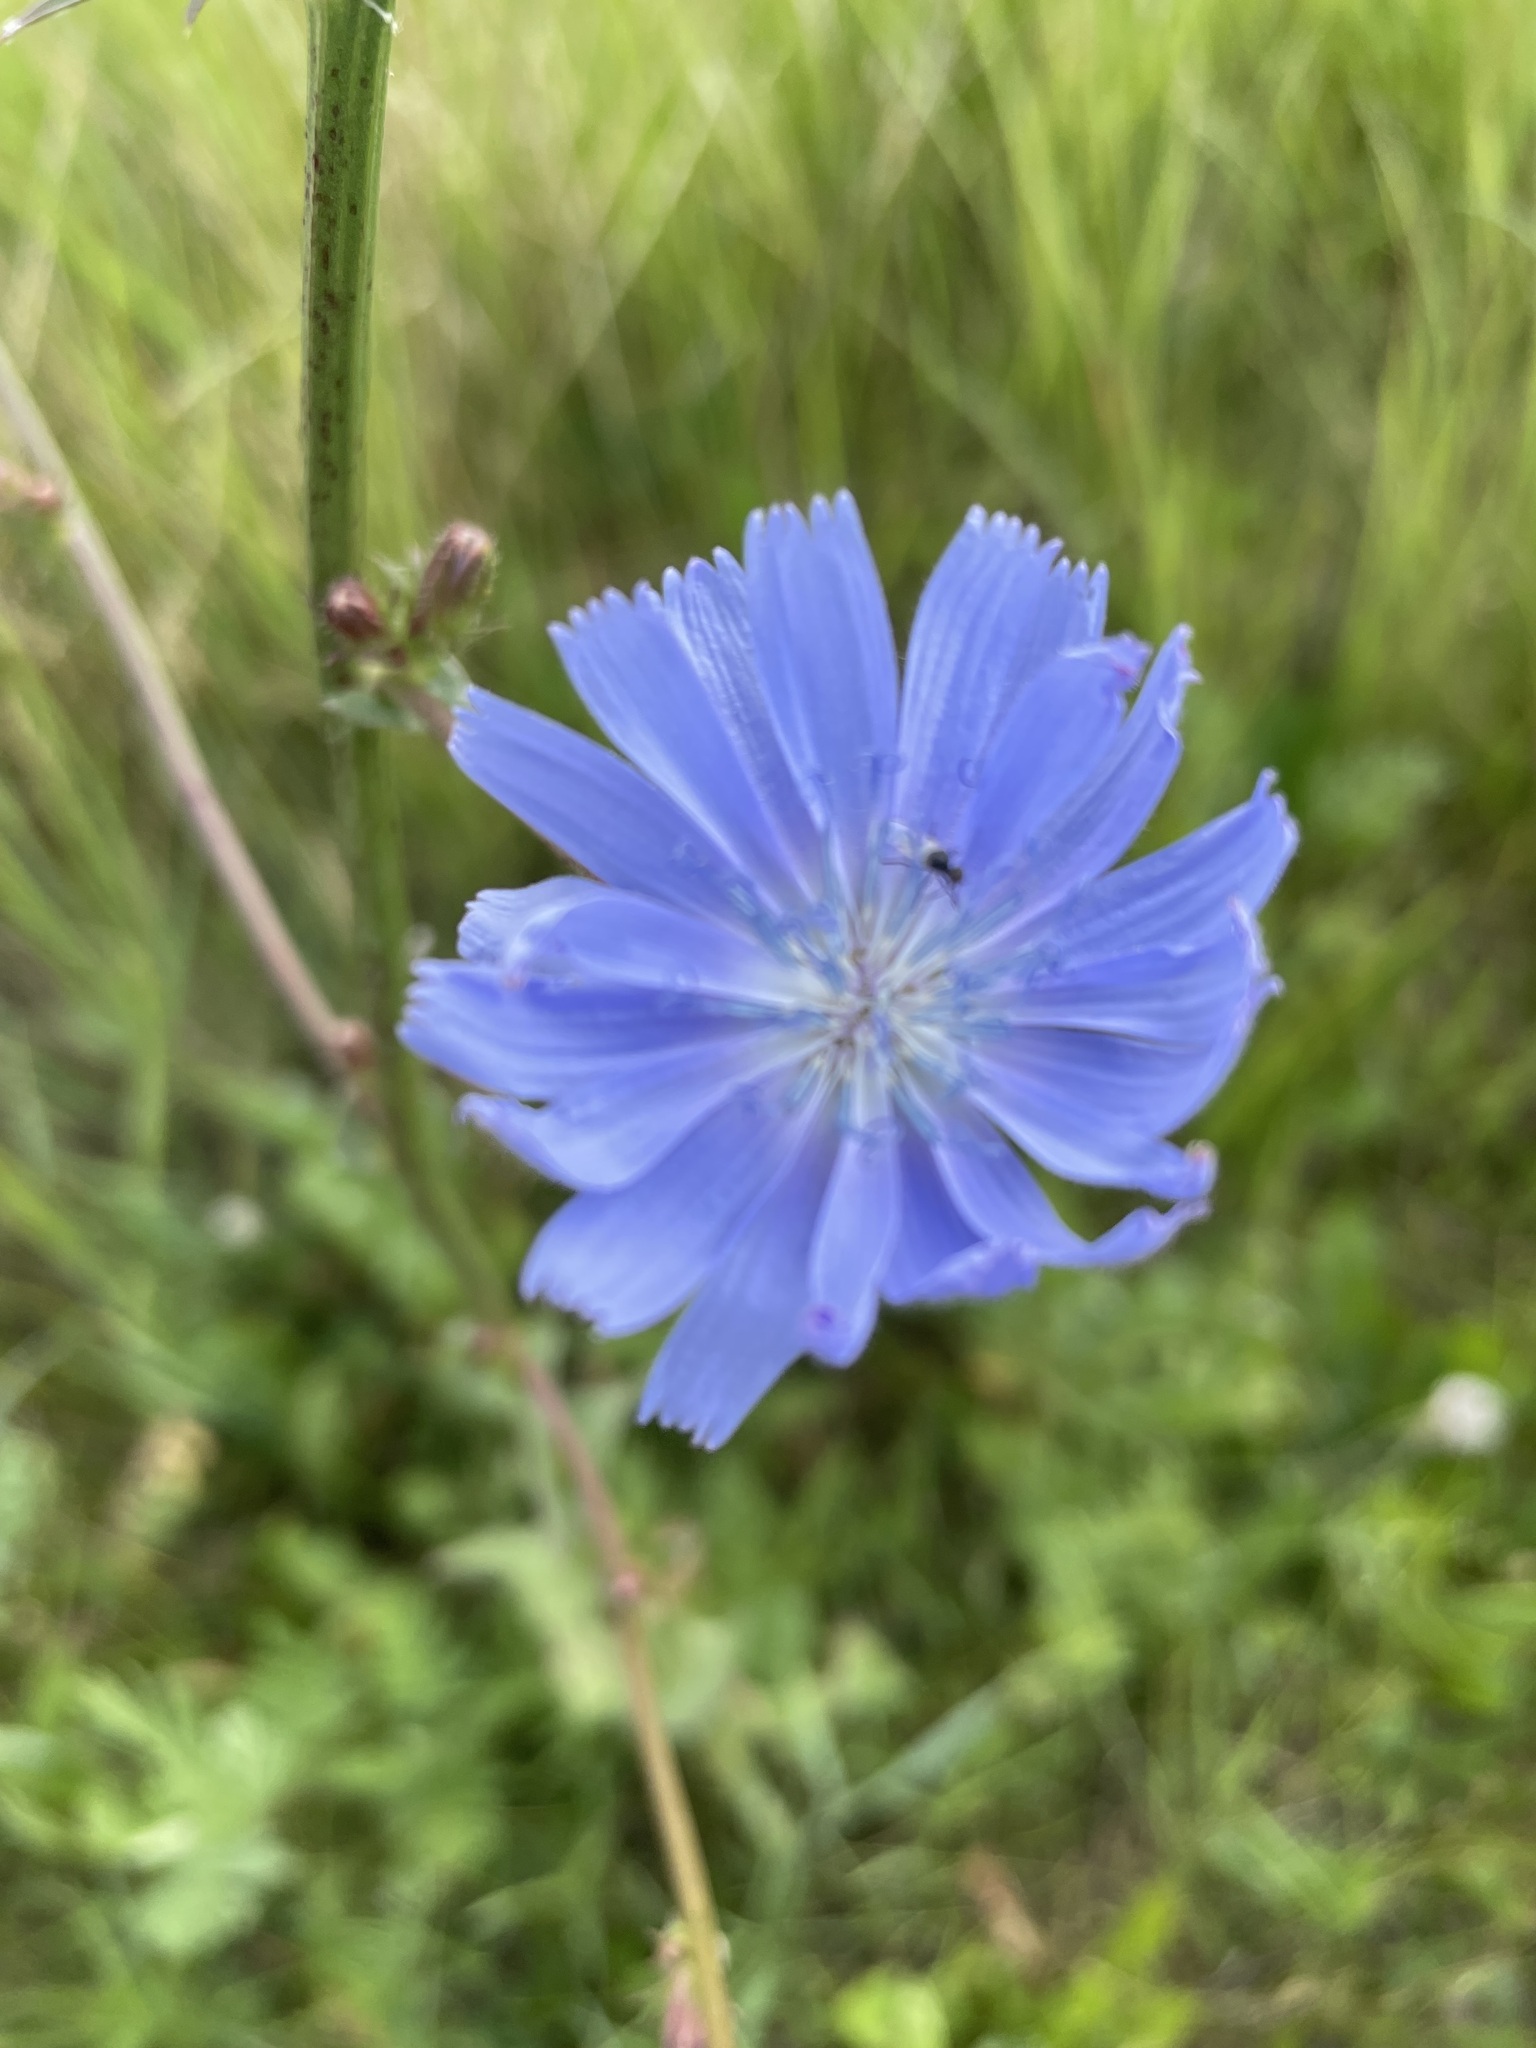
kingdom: Plantae
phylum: Tracheophyta
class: Magnoliopsida
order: Asterales
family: Asteraceae
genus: Cichorium
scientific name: Cichorium intybus
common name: Chicory
